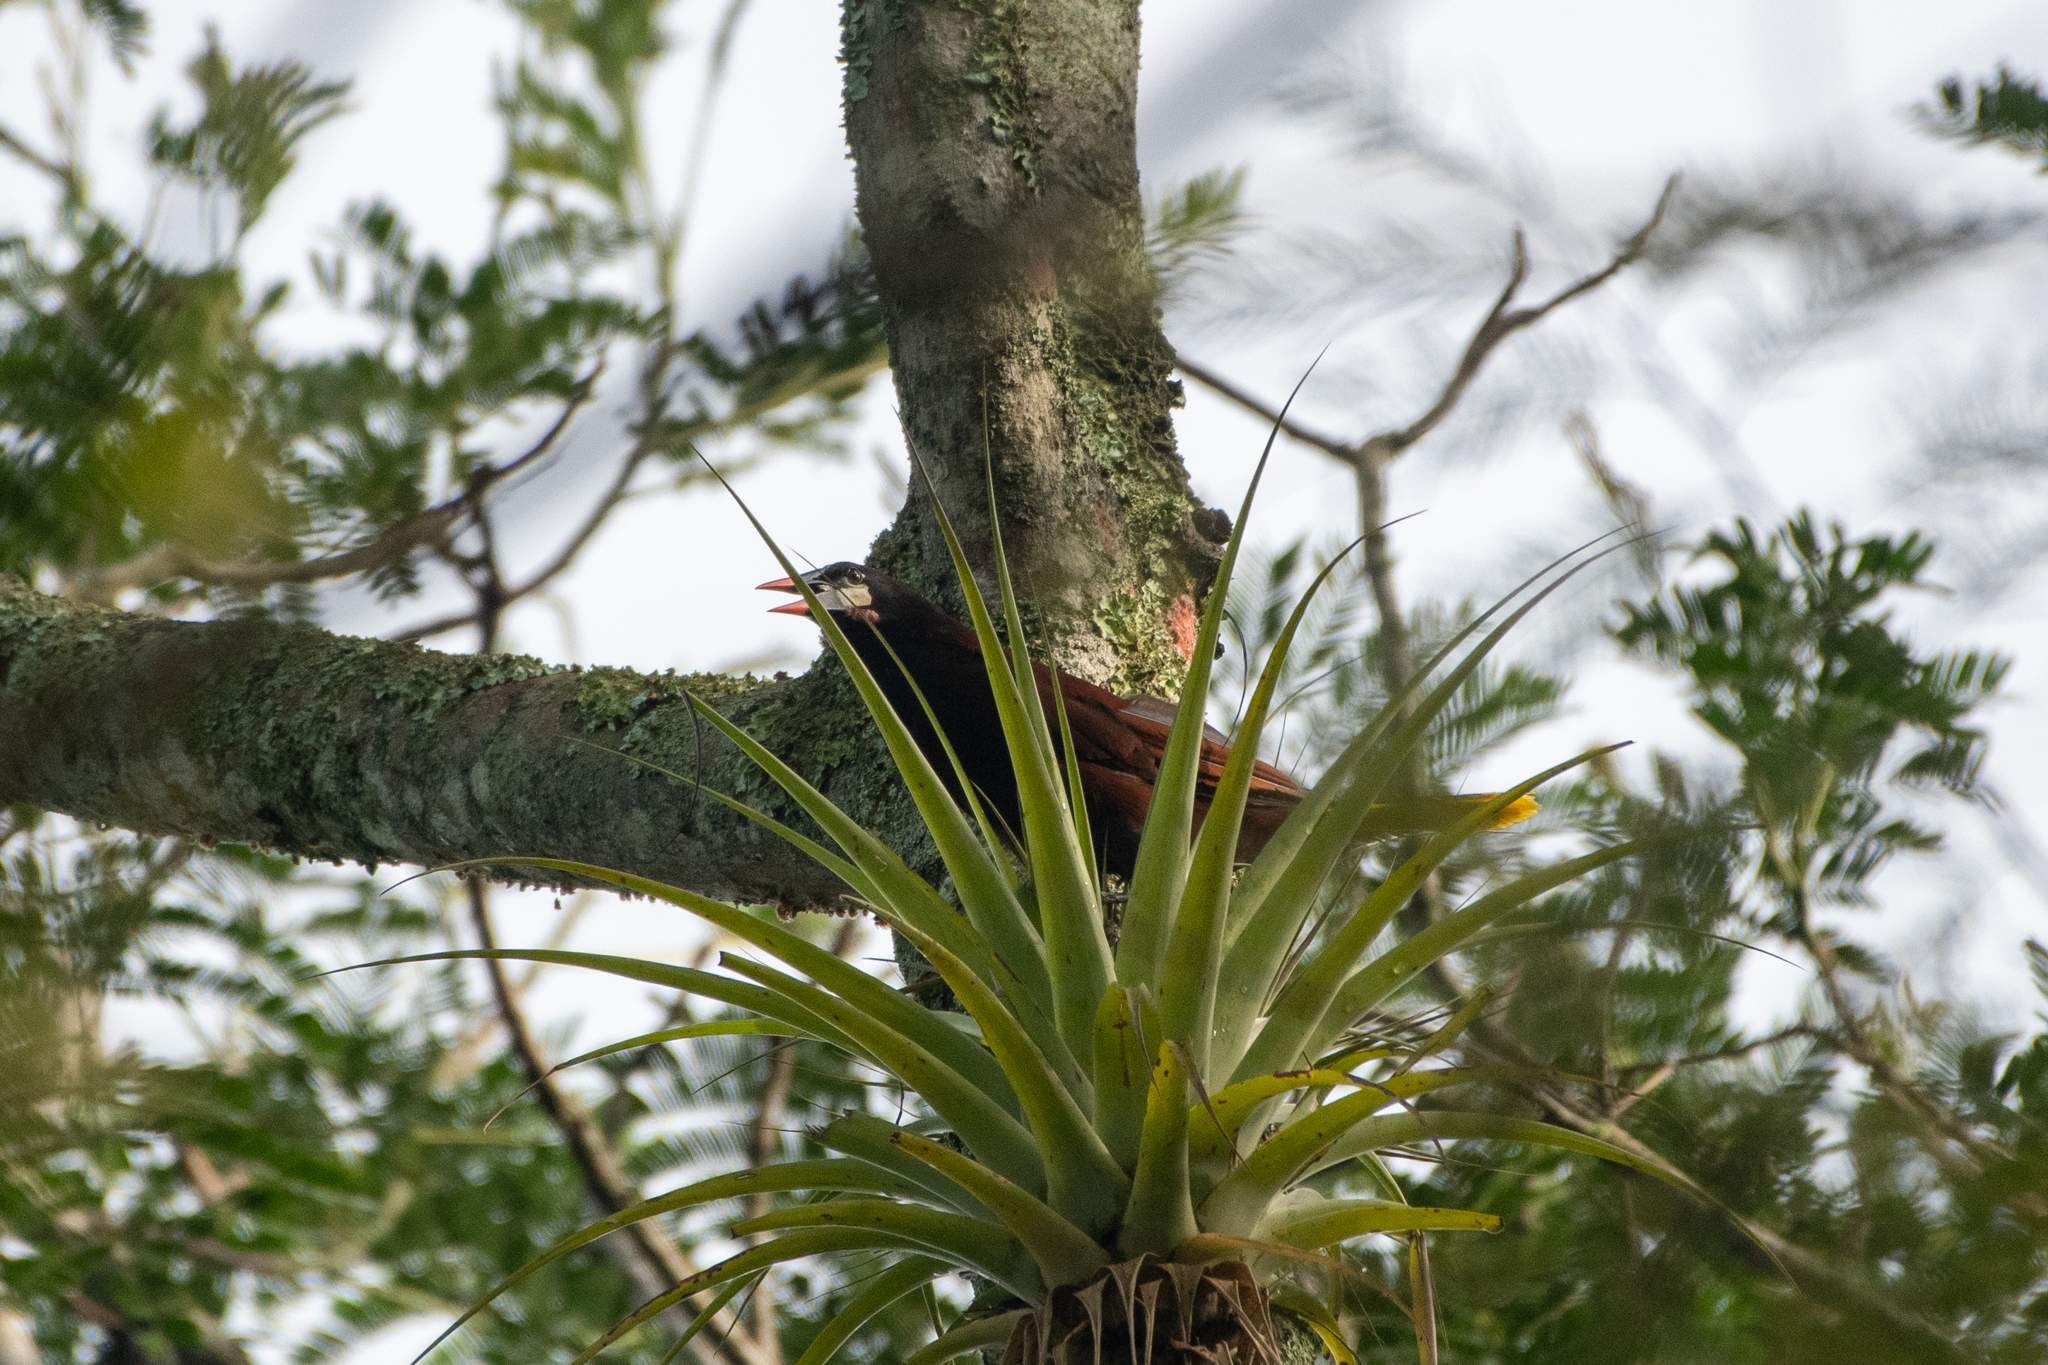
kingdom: Animalia
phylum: Chordata
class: Aves
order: Passeriformes
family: Icteridae
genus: Psarocolius
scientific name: Psarocolius montezuma
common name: Montezuma oropendola
